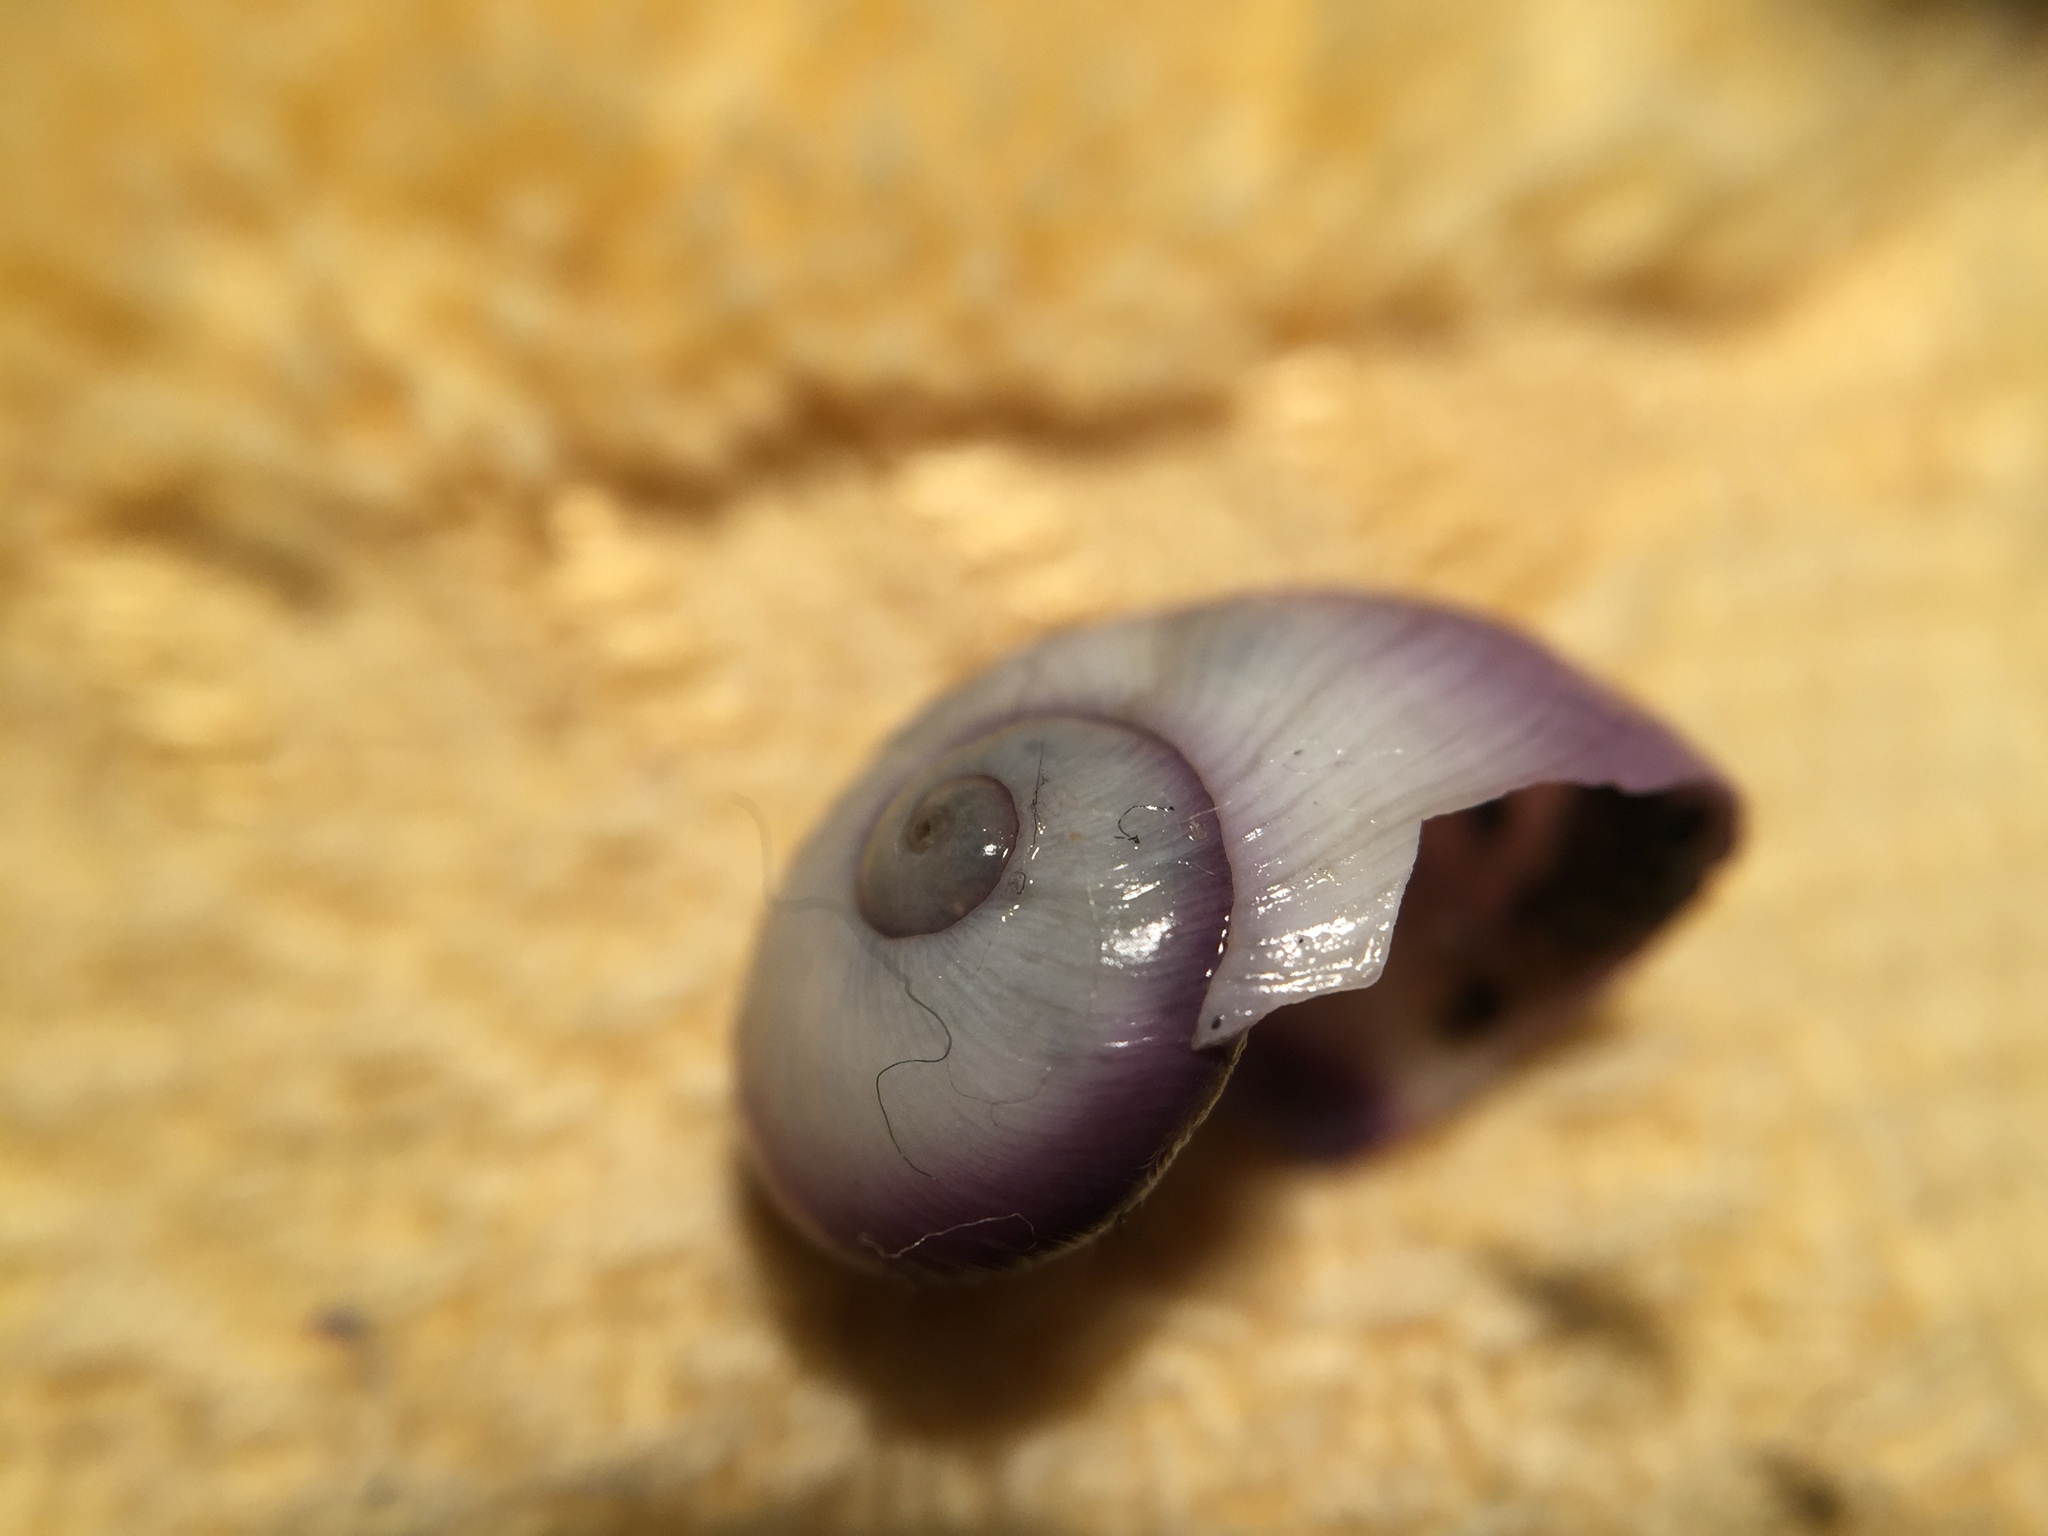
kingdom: Animalia
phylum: Mollusca
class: Gastropoda
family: Epitoniidae
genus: Janthina
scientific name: Janthina janthina
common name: Common janthina
